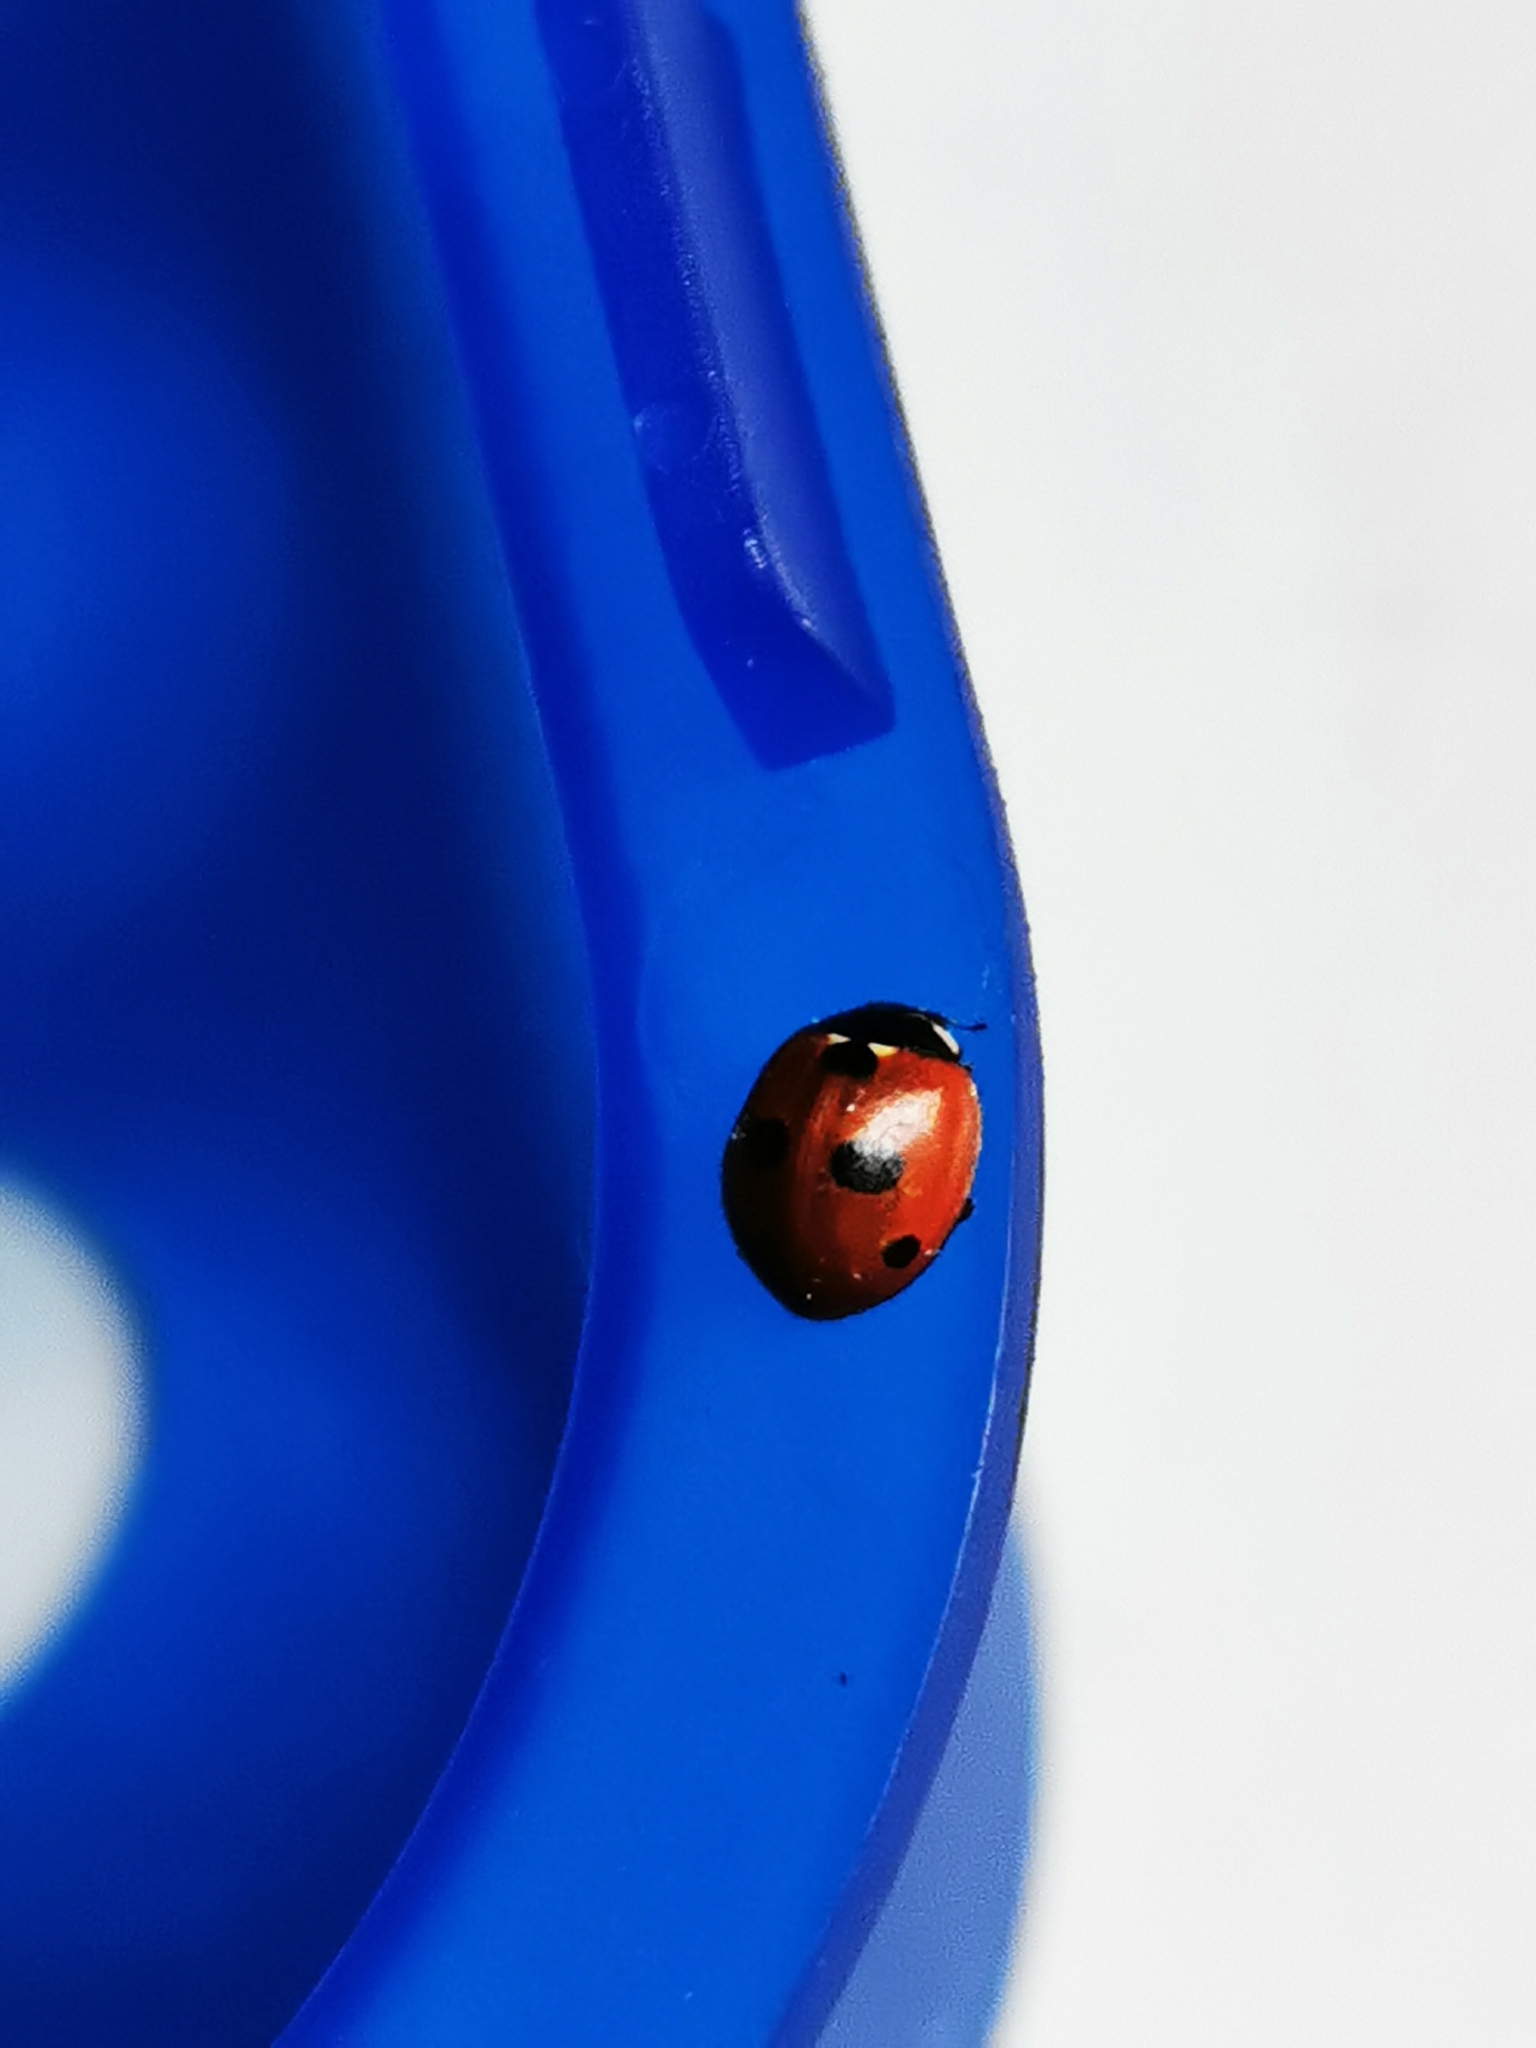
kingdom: Animalia
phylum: Arthropoda
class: Insecta
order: Coleoptera
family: Coccinellidae
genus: Coccinella
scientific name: Coccinella quinquepunctata
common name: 5-spot ladybird
